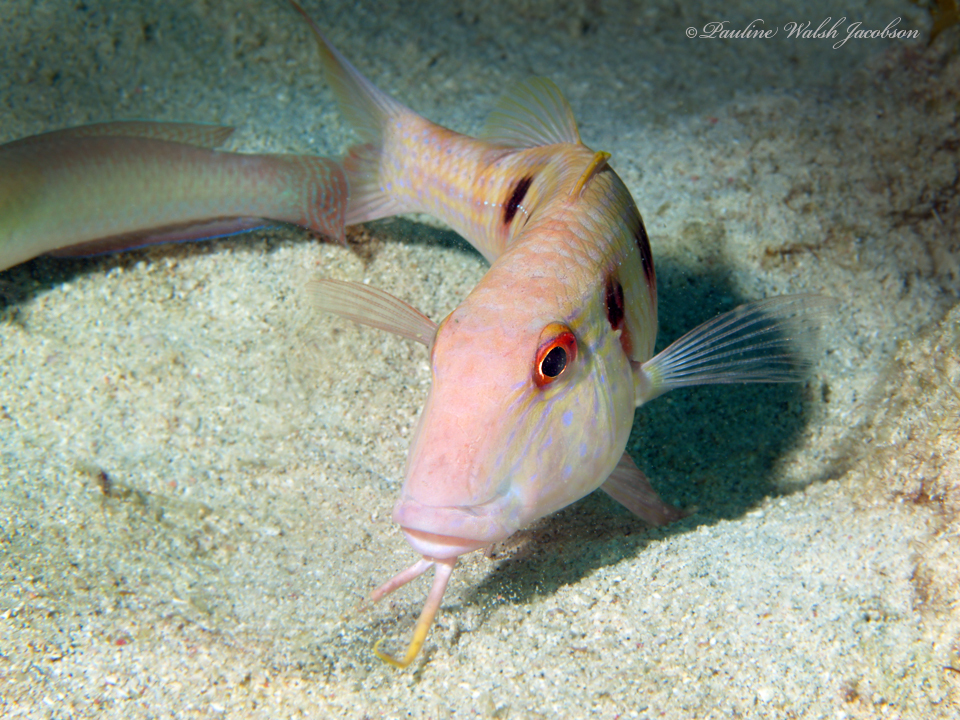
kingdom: Animalia
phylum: Chordata
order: Perciformes
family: Mullidae
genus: Pseudupeneus
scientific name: Pseudupeneus maculatus
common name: Spotted goatfish
